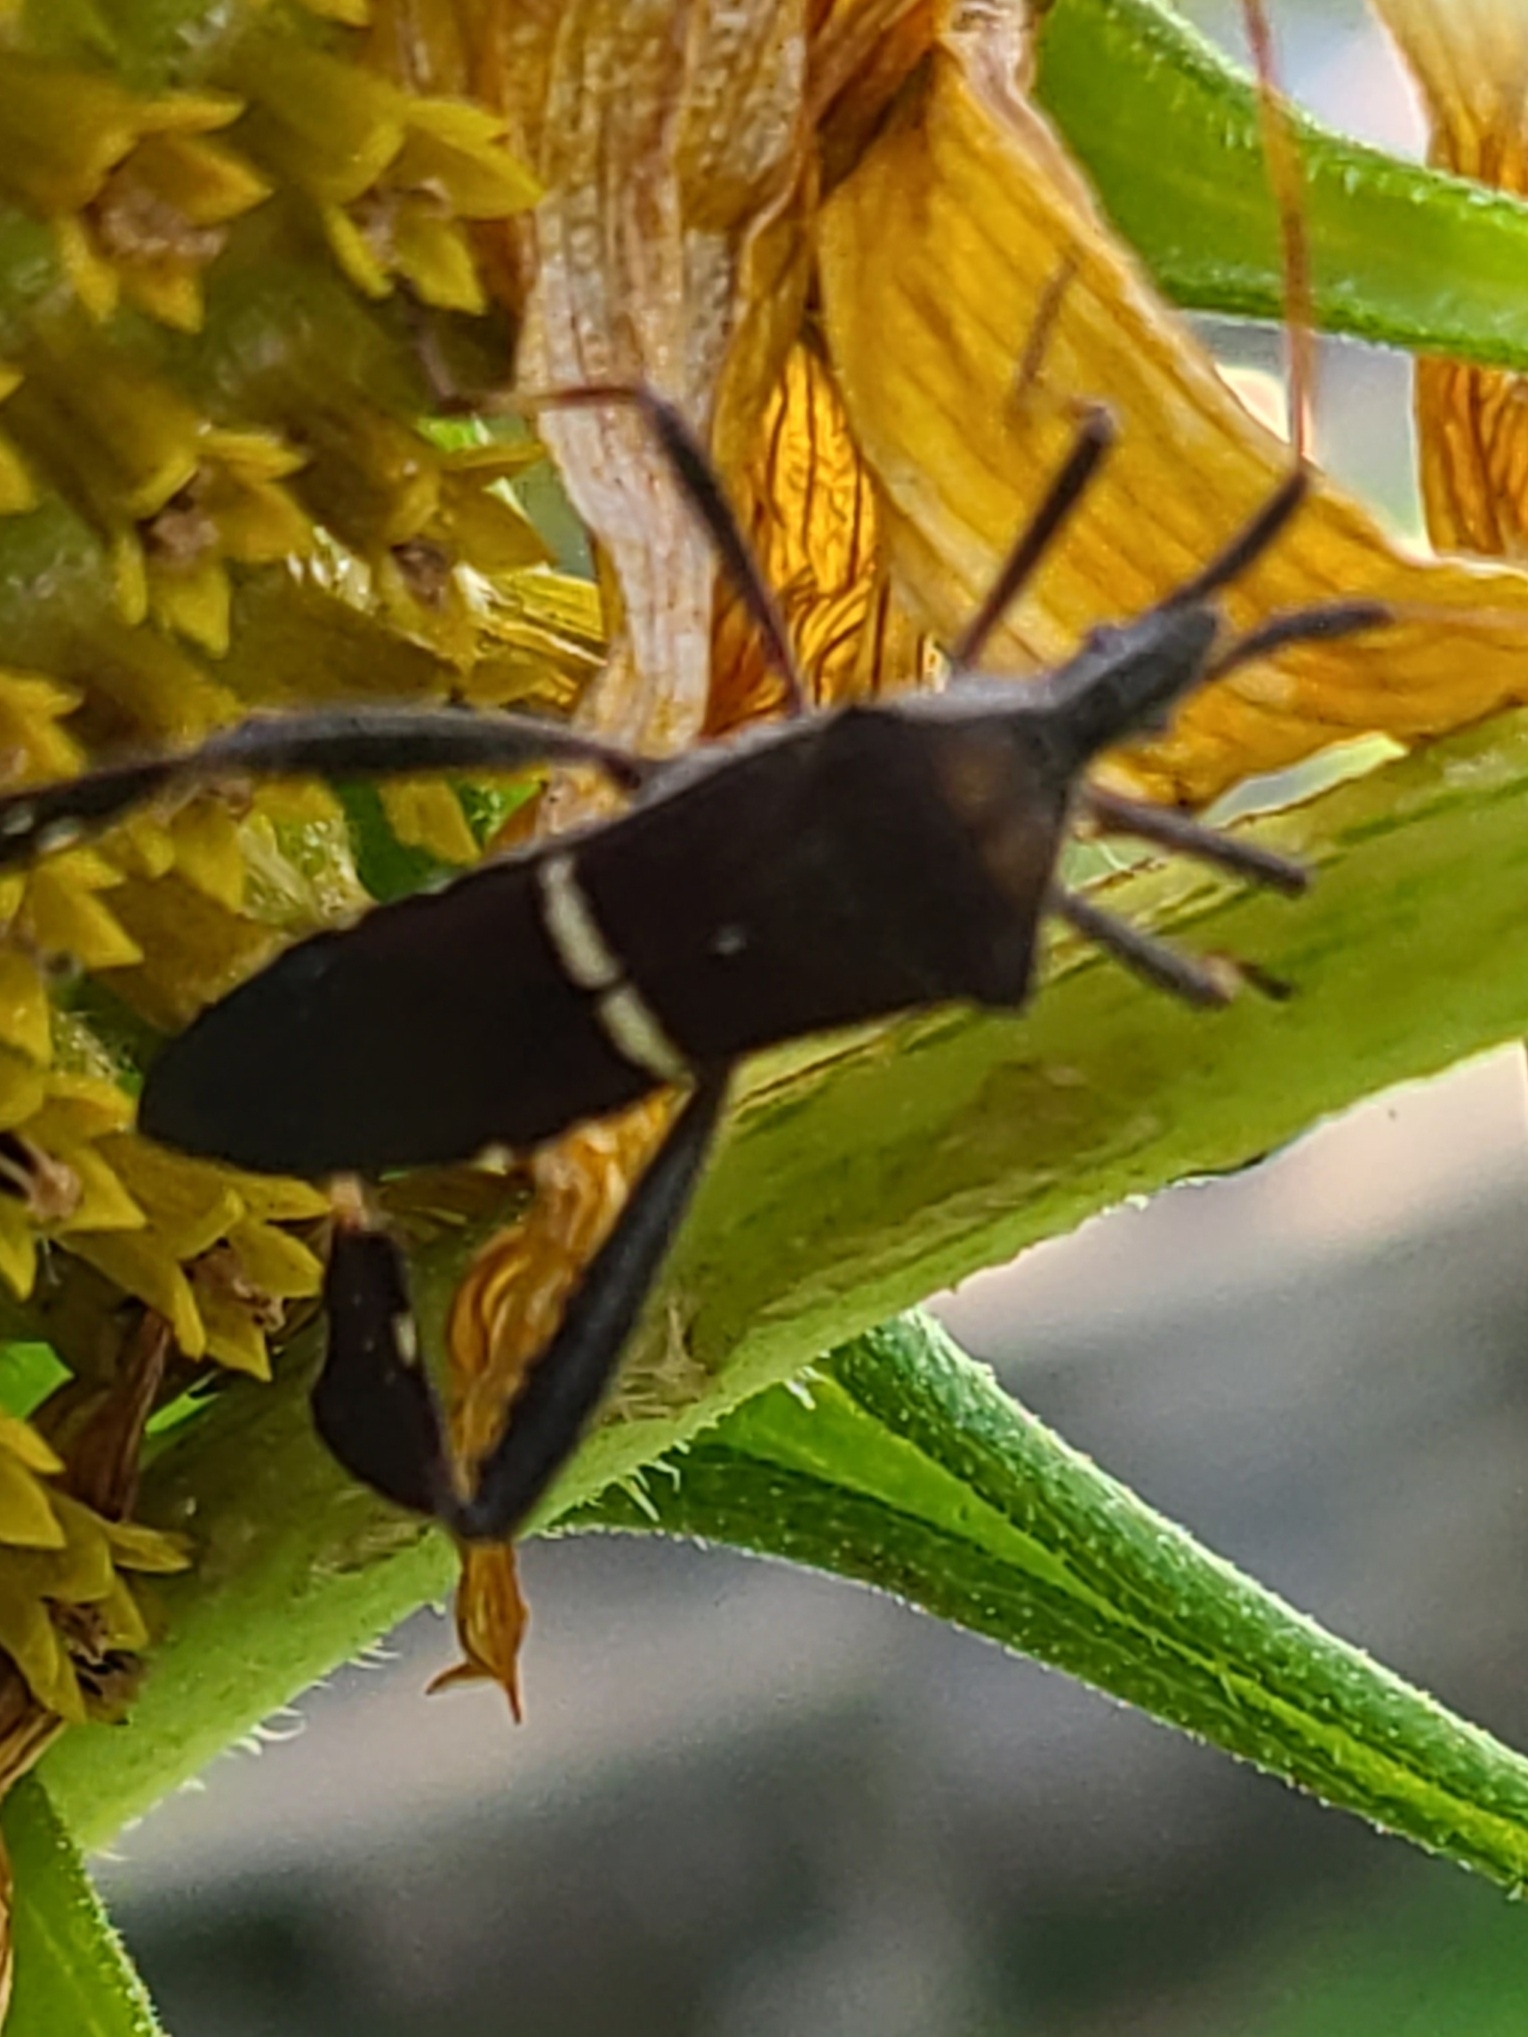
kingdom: Animalia
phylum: Arthropoda
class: Insecta
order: Hemiptera
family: Coreidae
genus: Leptoglossus
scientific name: Leptoglossus phyllopus
